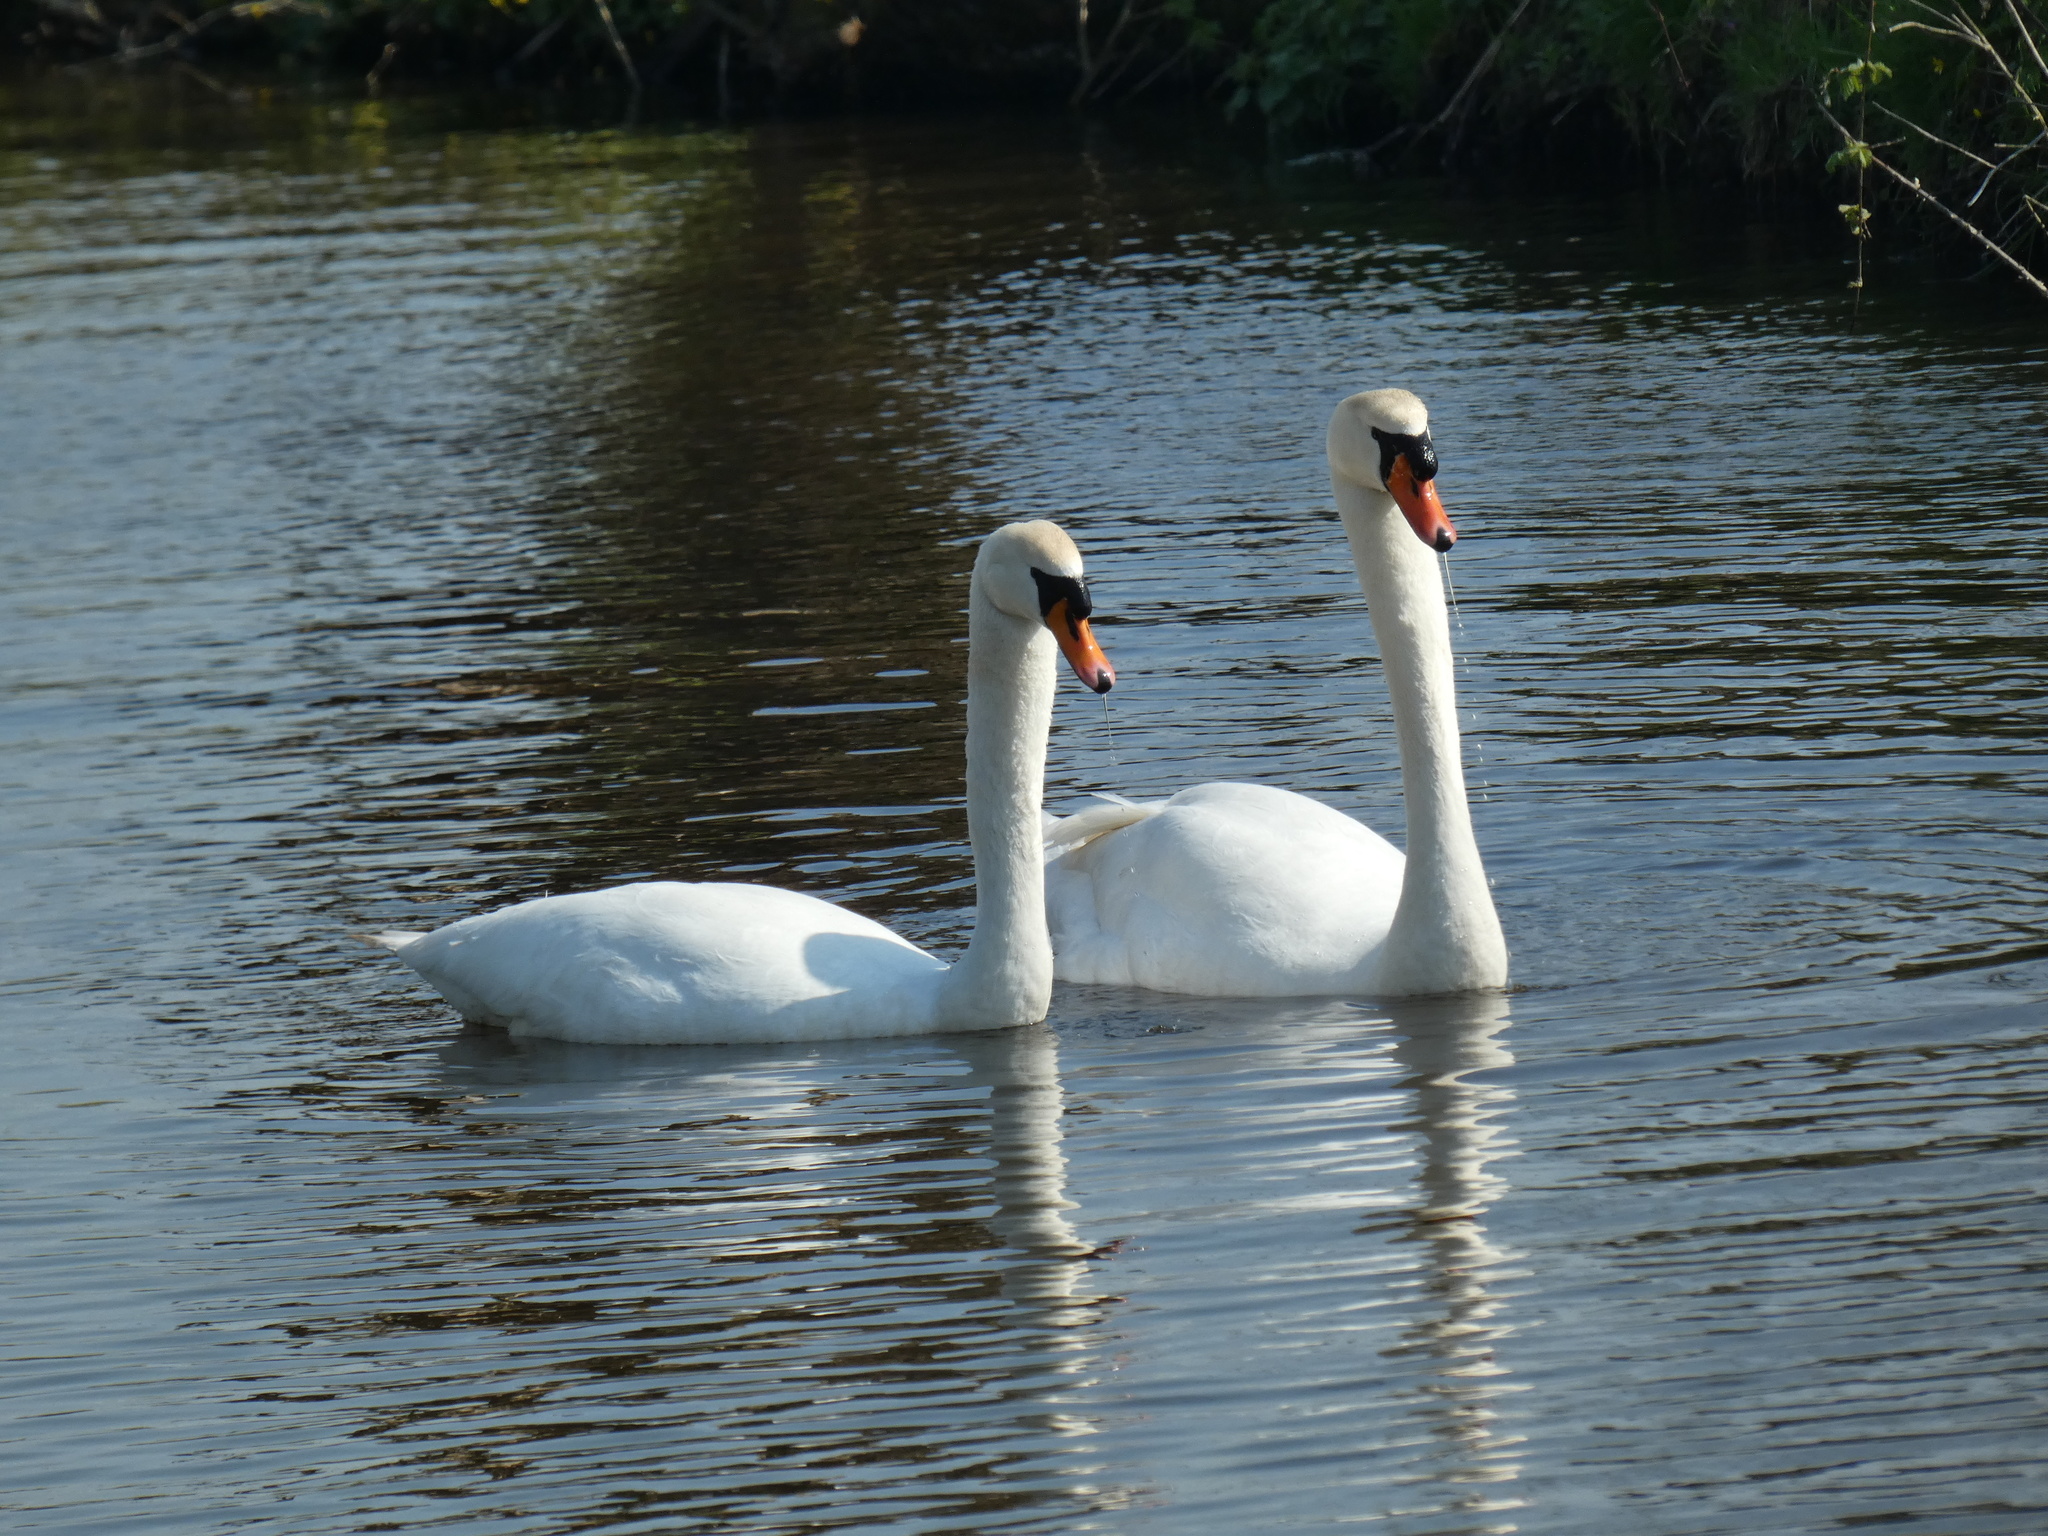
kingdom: Animalia
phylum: Chordata
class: Aves
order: Anseriformes
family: Anatidae
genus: Cygnus
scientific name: Cygnus olor
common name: Mute swan
